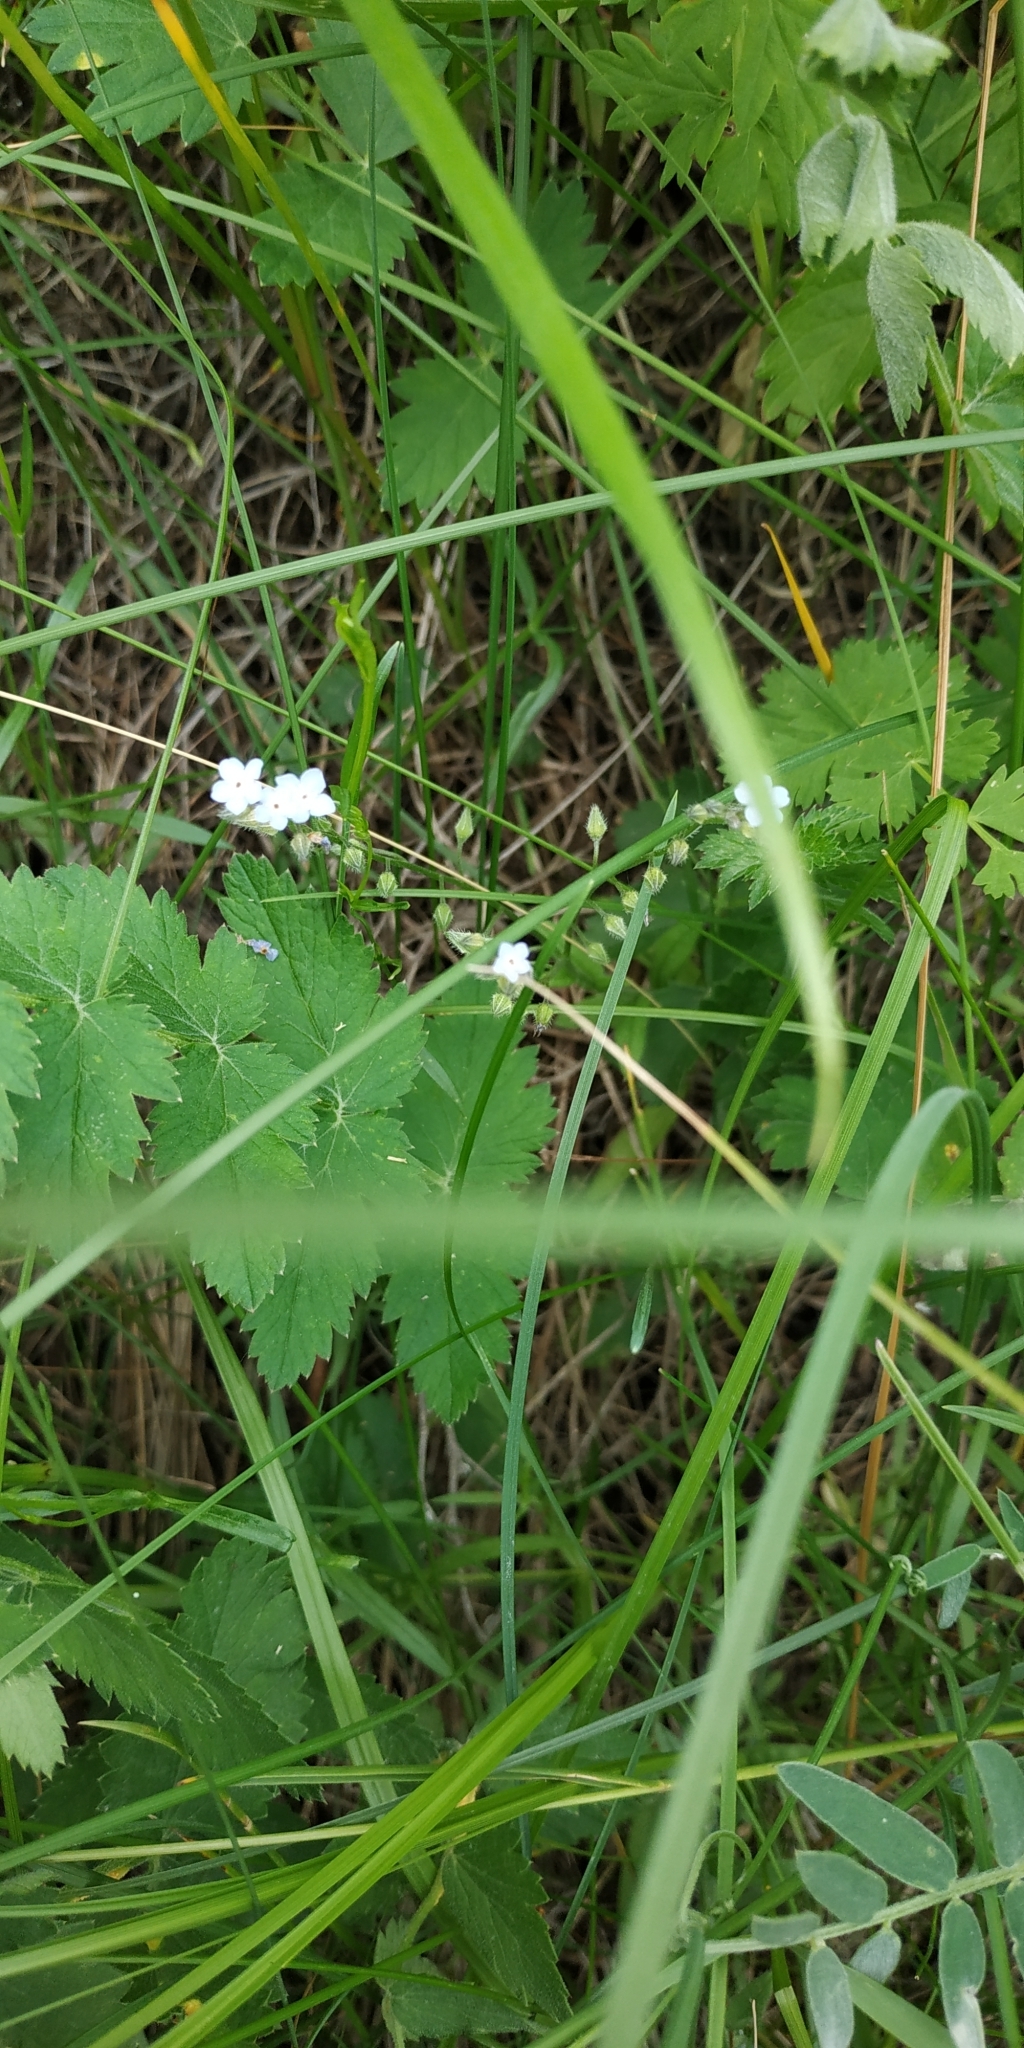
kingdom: Plantae
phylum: Tracheophyta
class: Magnoliopsida
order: Boraginales
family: Boraginaceae
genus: Myosotis
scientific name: Myosotis imitata
